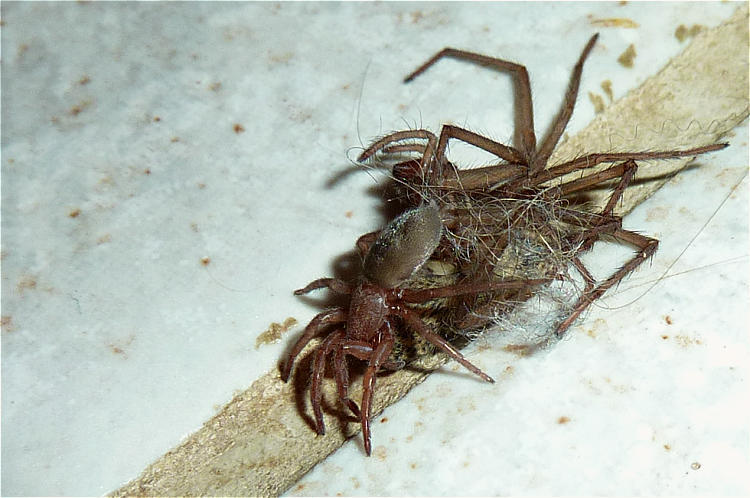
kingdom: Animalia
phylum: Arthropoda
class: Arachnida
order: Araneae
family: Gnaphosidae
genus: Scotophaeus
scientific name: Scotophaeus
